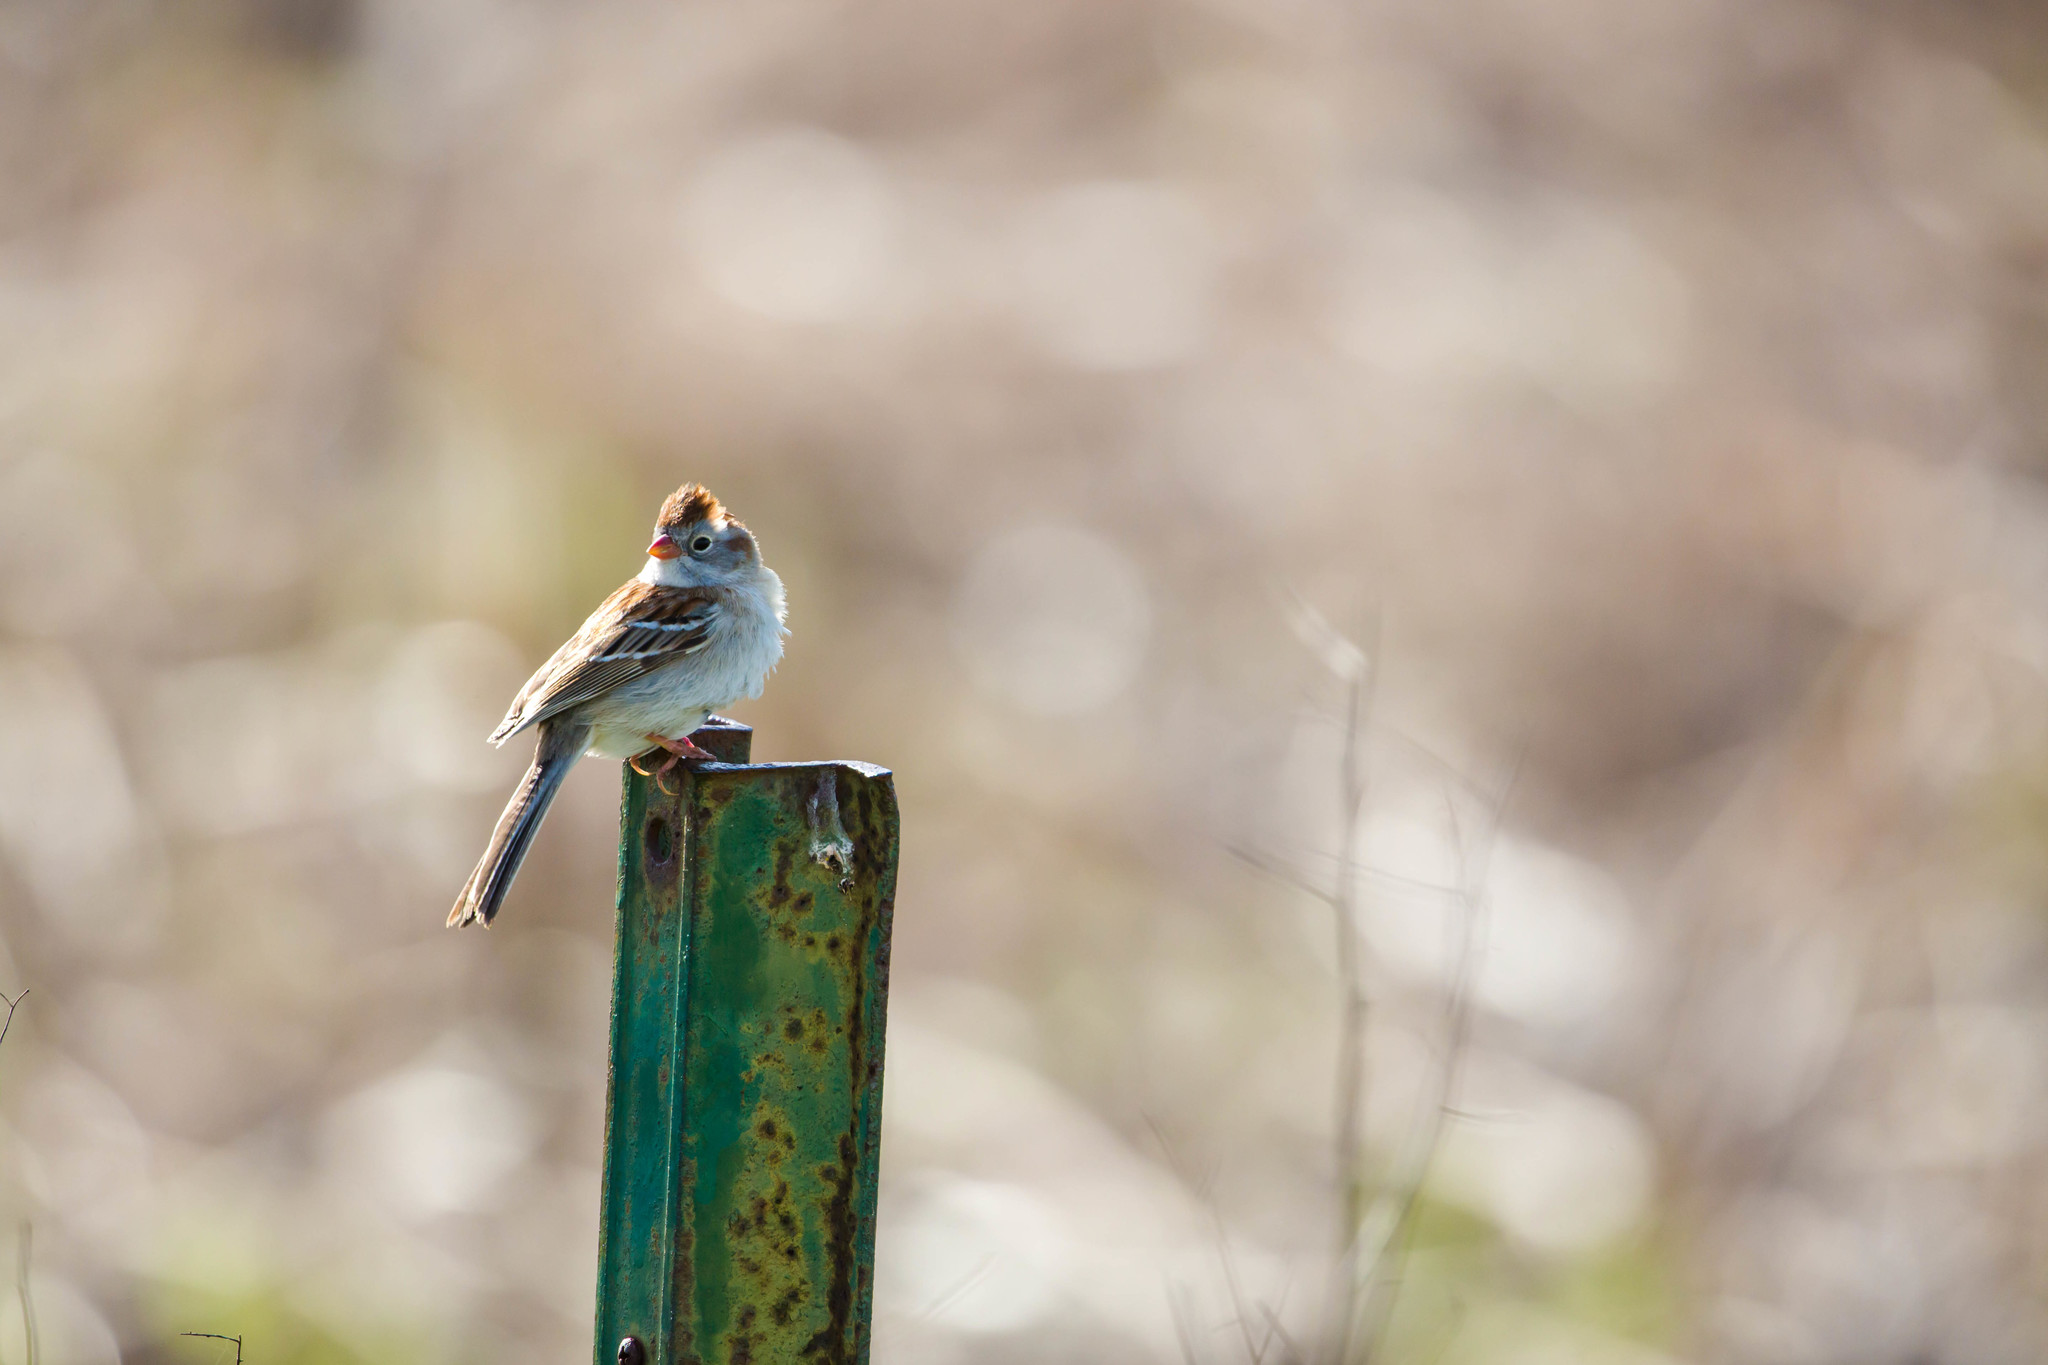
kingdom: Animalia
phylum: Chordata
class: Aves
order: Passeriformes
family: Passerellidae
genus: Spizella
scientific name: Spizella pusilla
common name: Field sparrow
